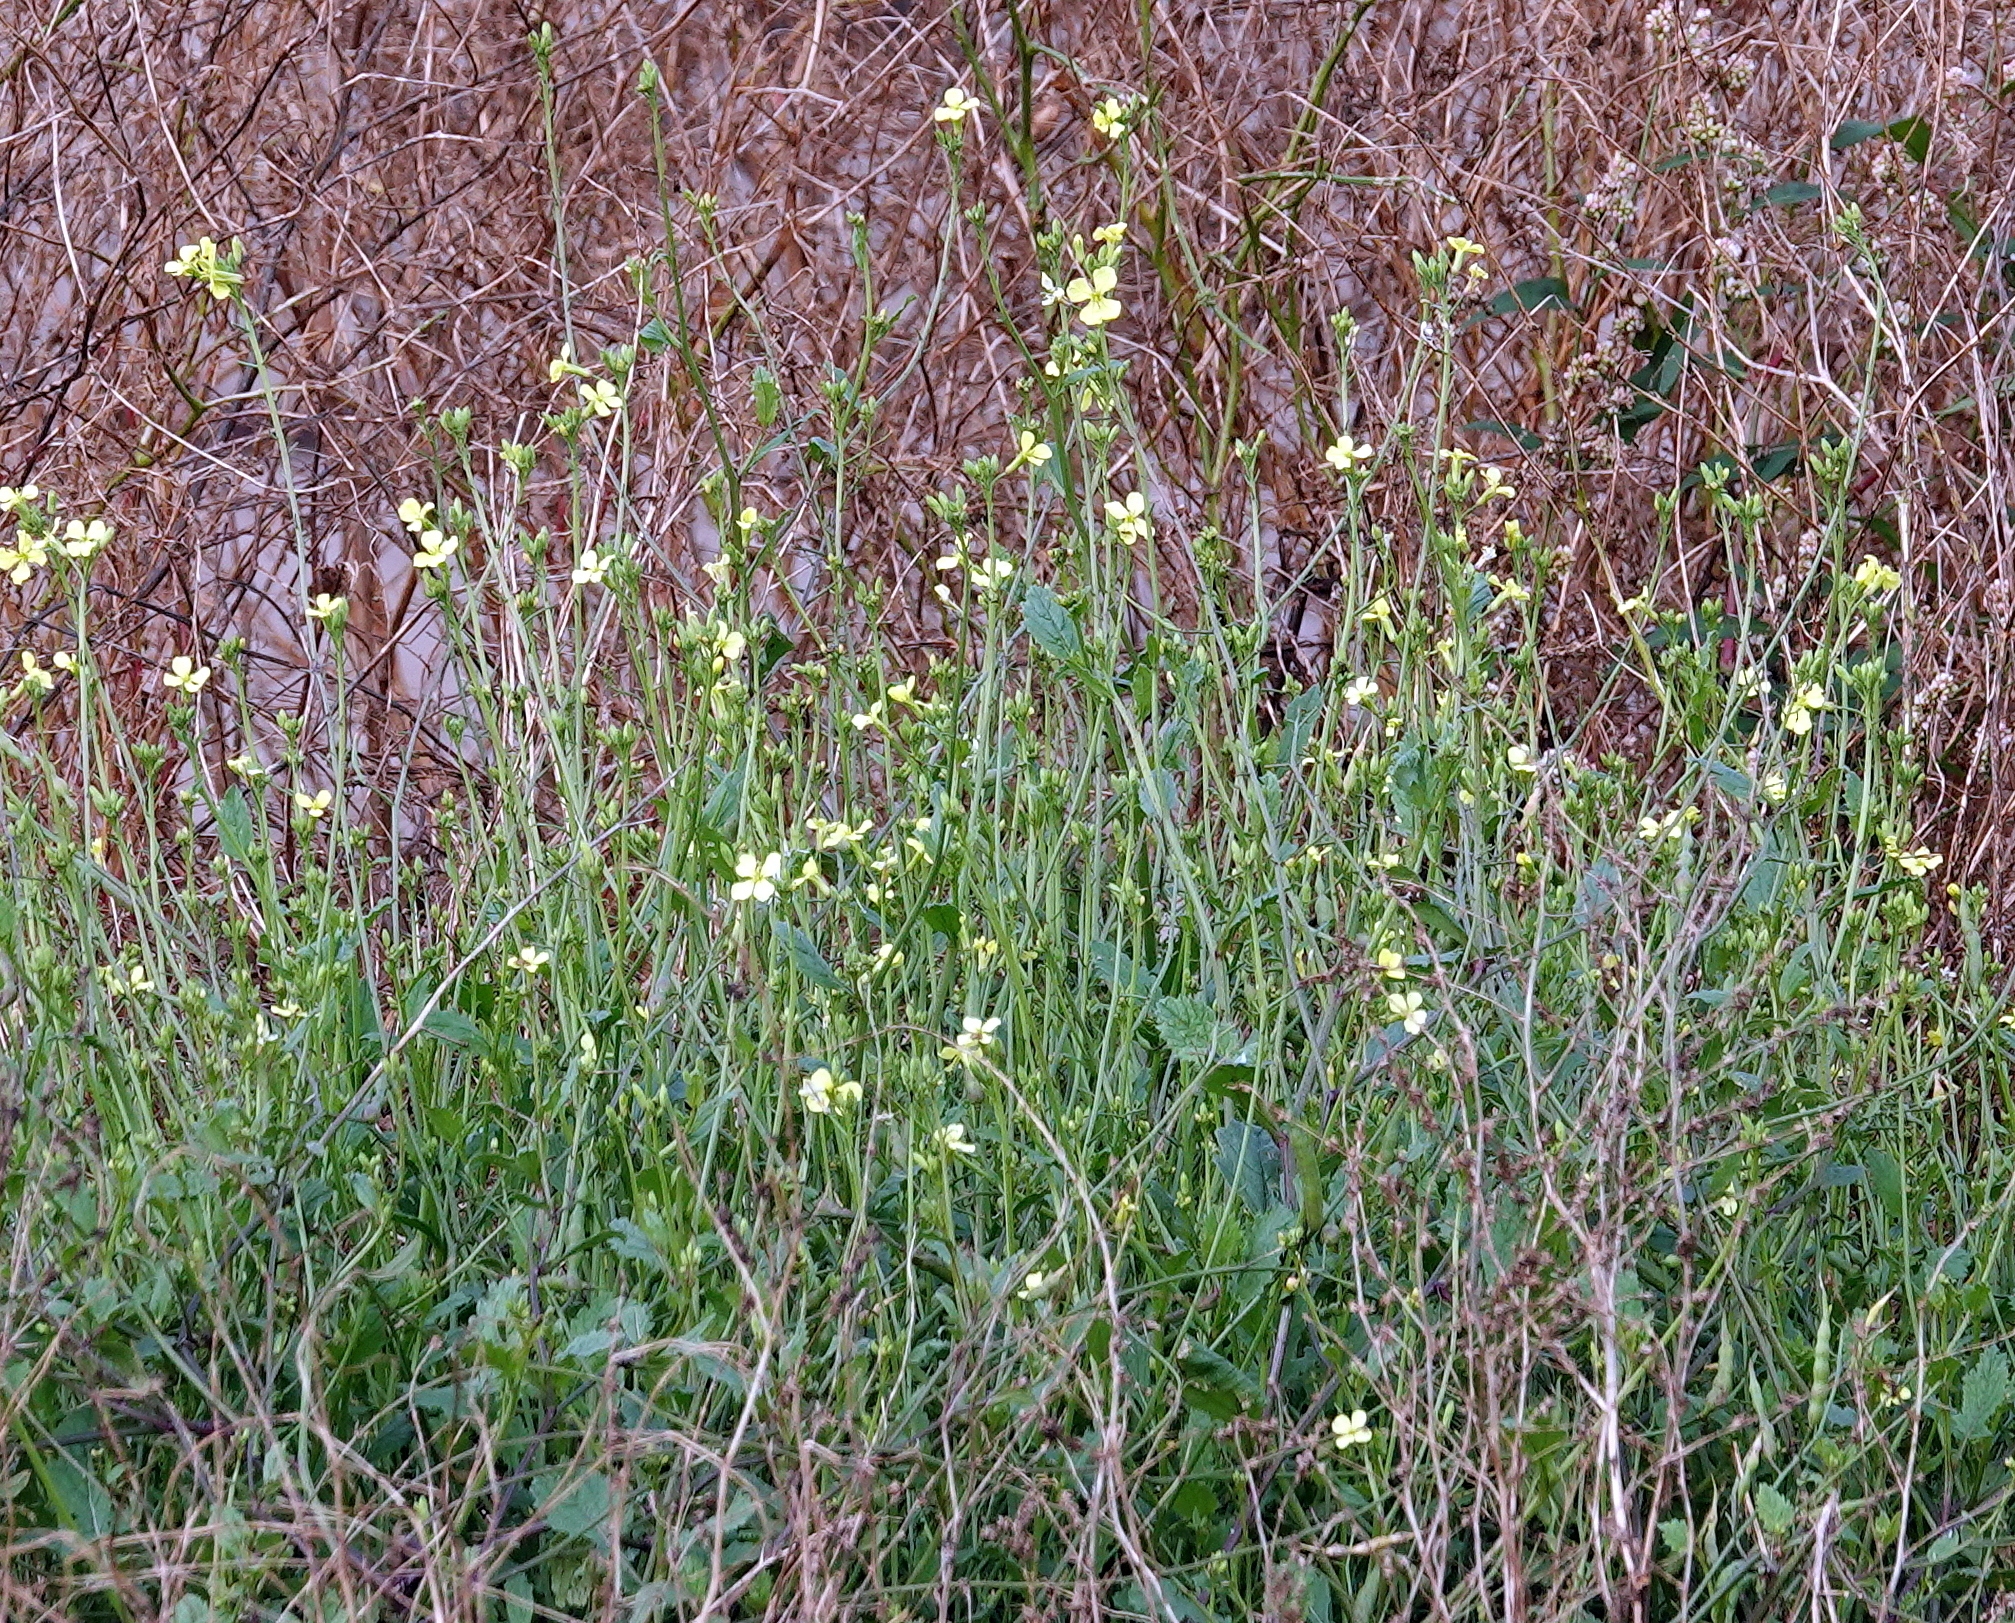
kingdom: Plantae
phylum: Tracheophyta
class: Magnoliopsida
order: Brassicales
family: Brassicaceae
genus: Raphanus
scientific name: Raphanus raphanistrum
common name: Wild radish
